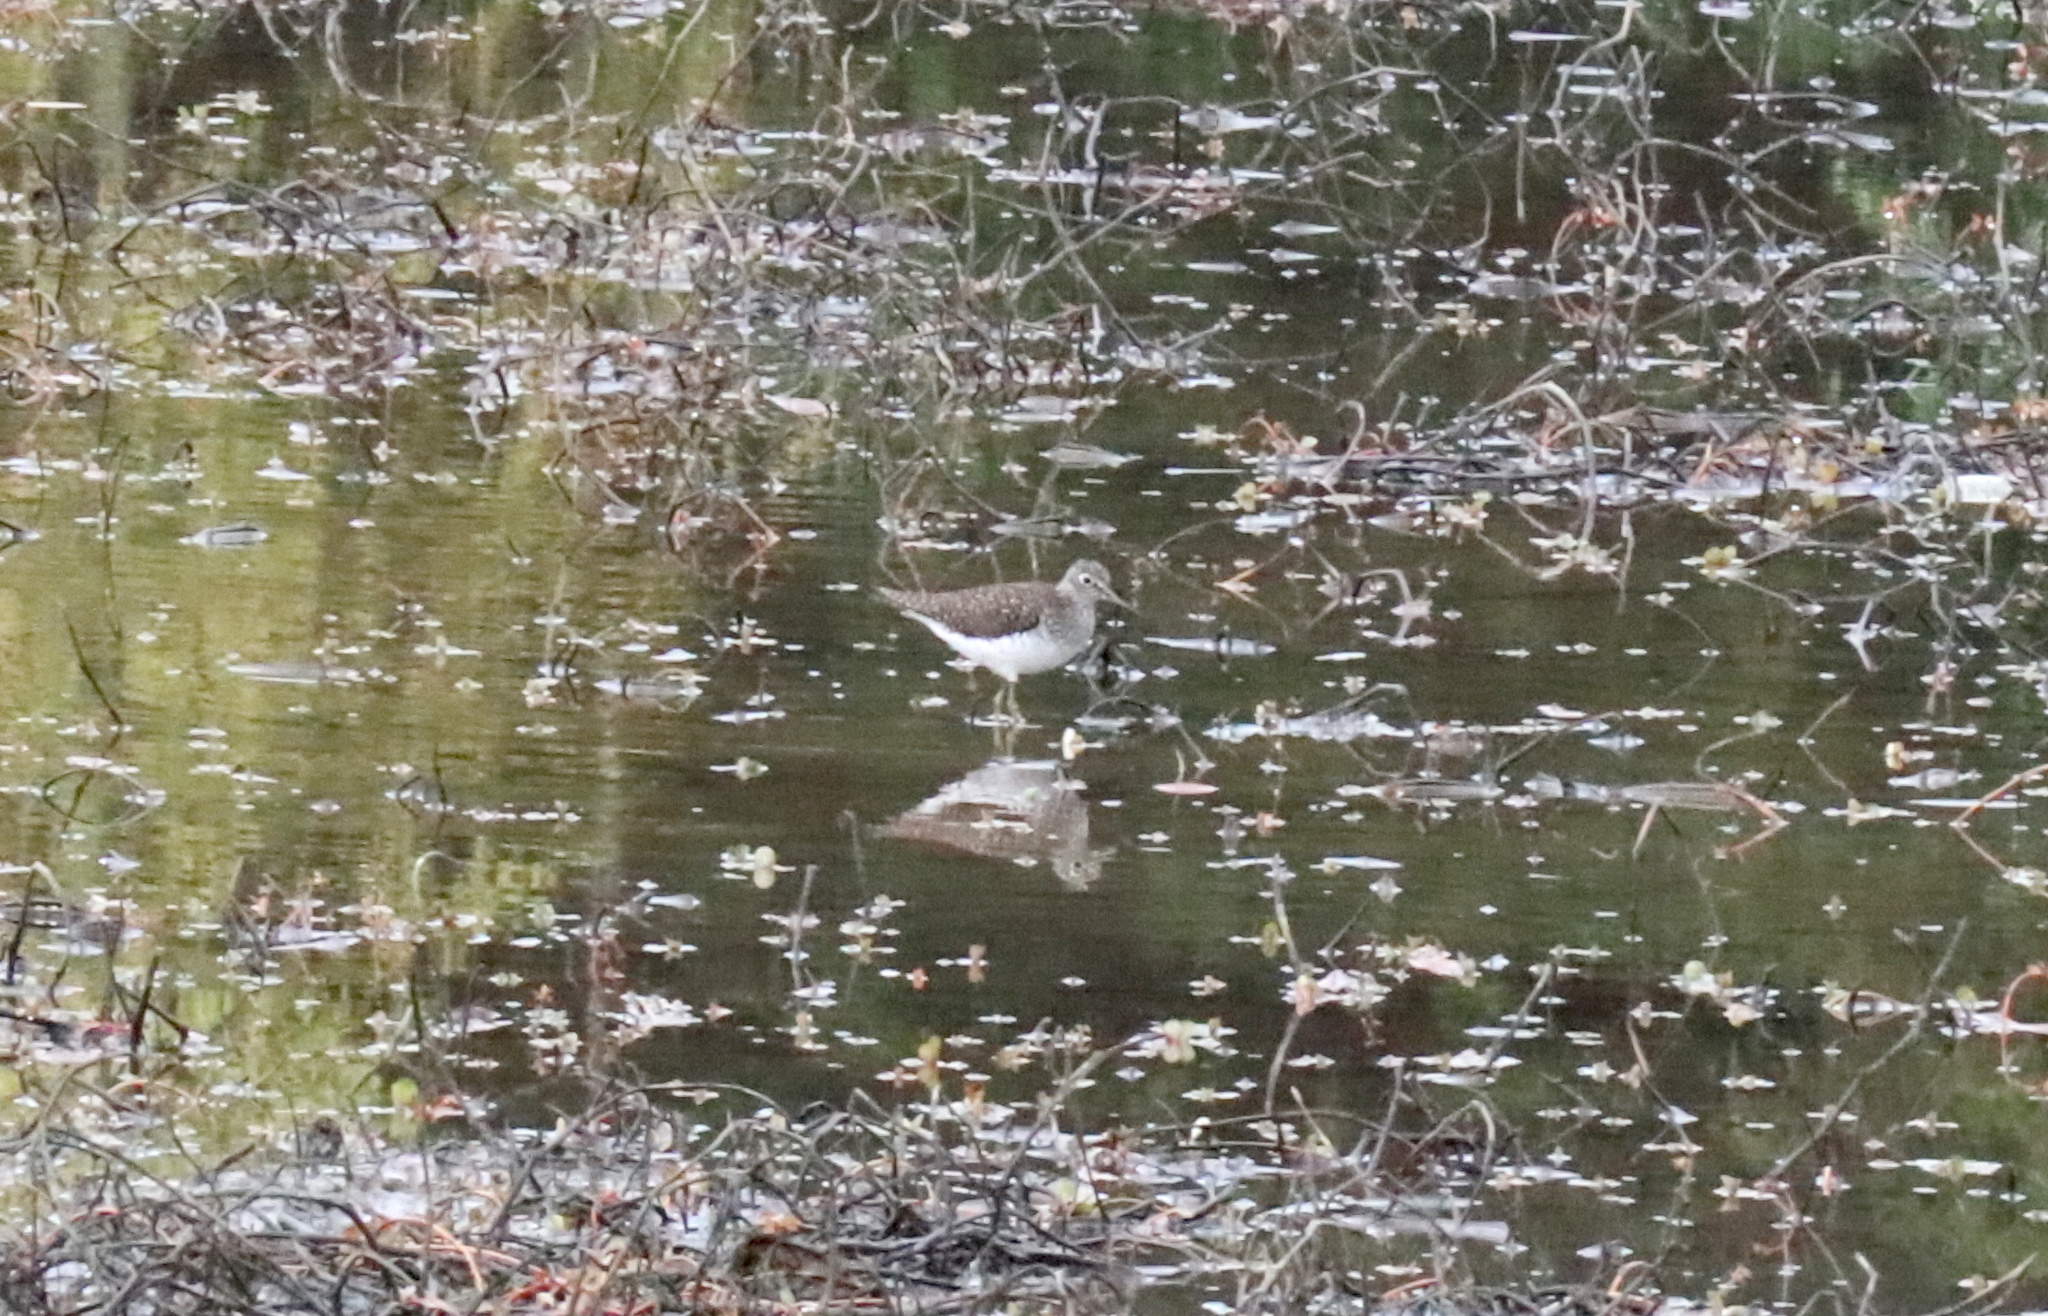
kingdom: Animalia
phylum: Chordata
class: Aves
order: Charadriiformes
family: Scolopacidae
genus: Tringa
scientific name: Tringa solitaria
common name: Solitary sandpiper
